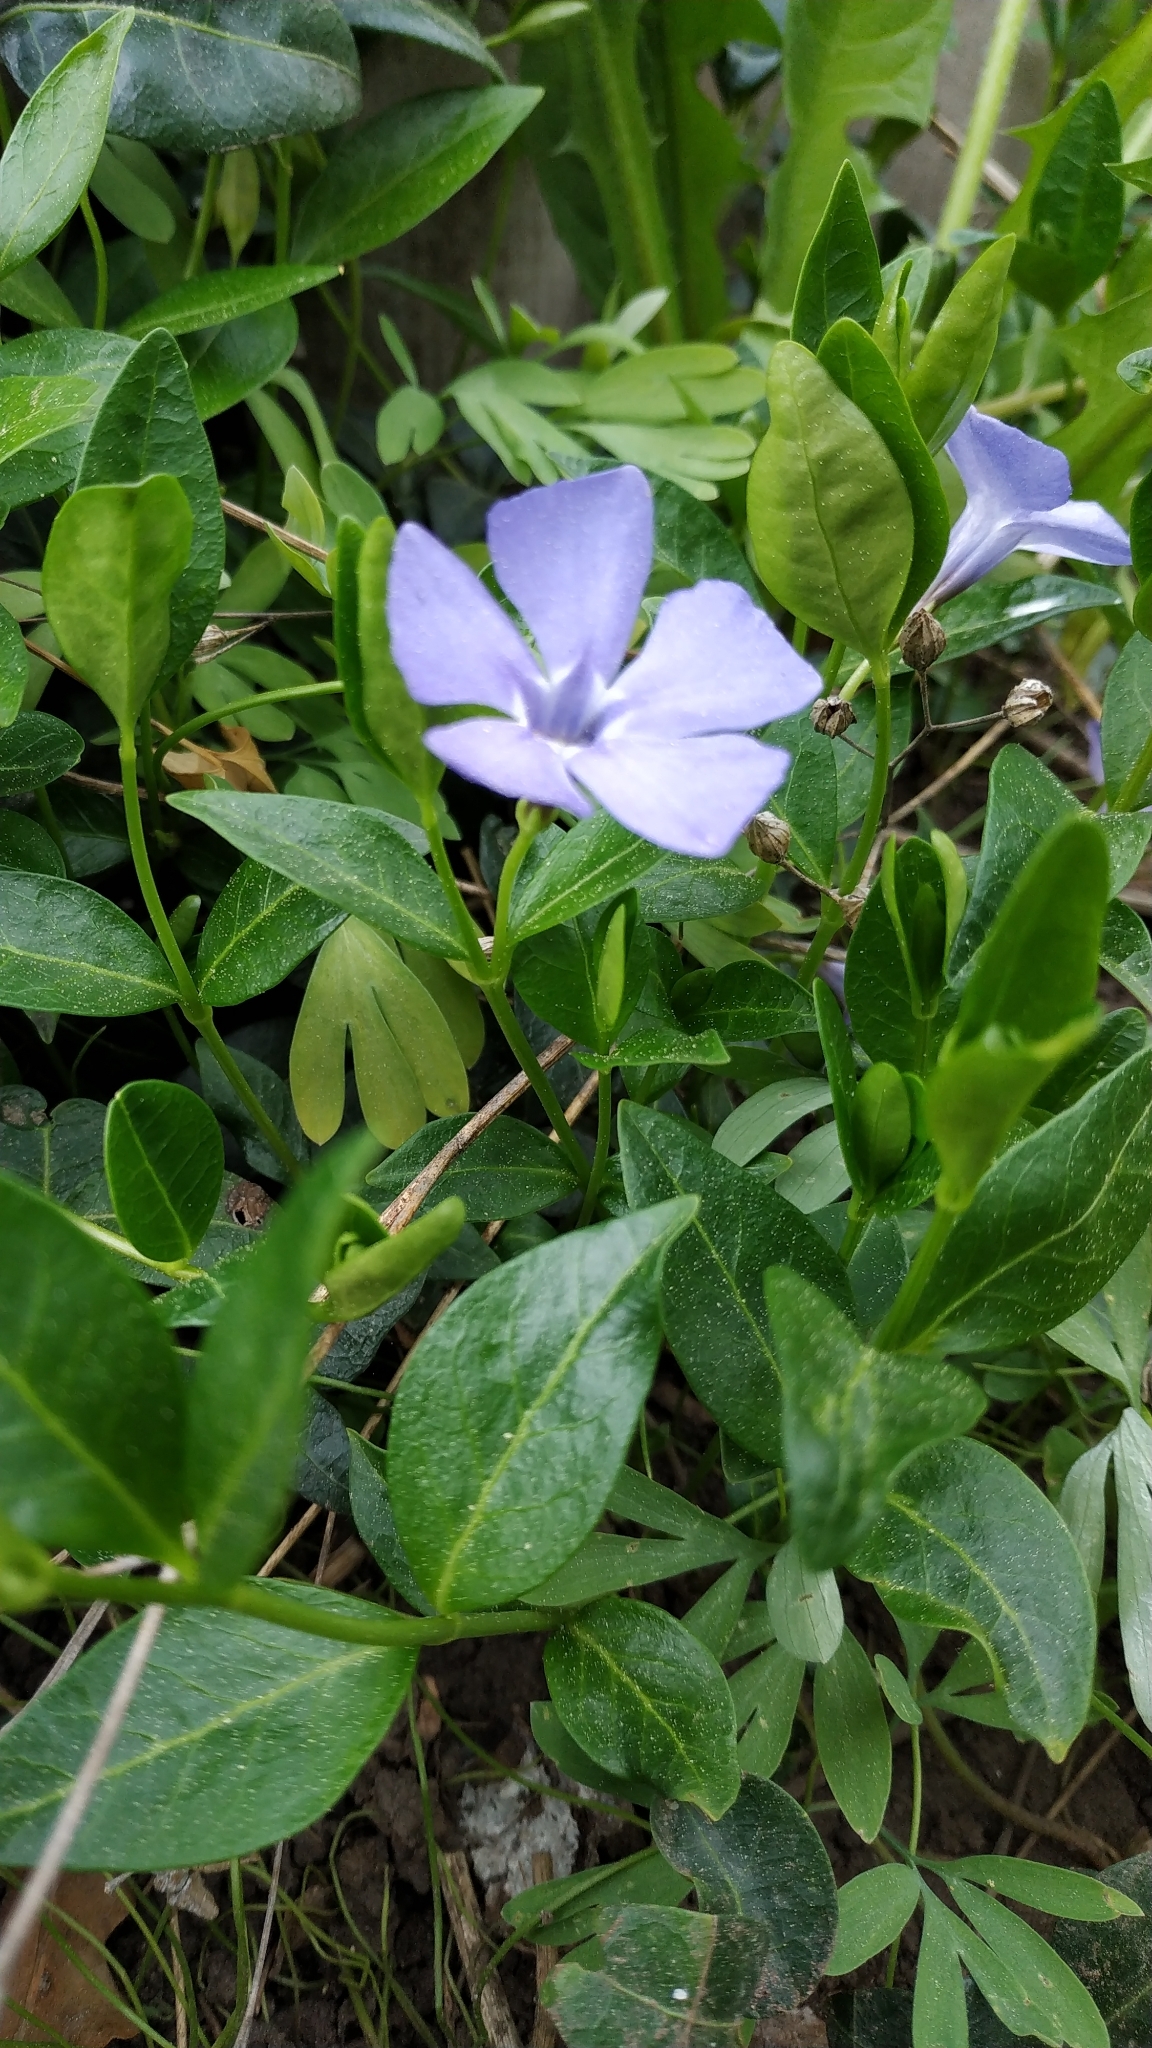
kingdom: Plantae
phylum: Tracheophyta
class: Magnoliopsida
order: Gentianales
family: Apocynaceae
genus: Vinca
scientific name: Vinca minor
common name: Lesser periwinkle
